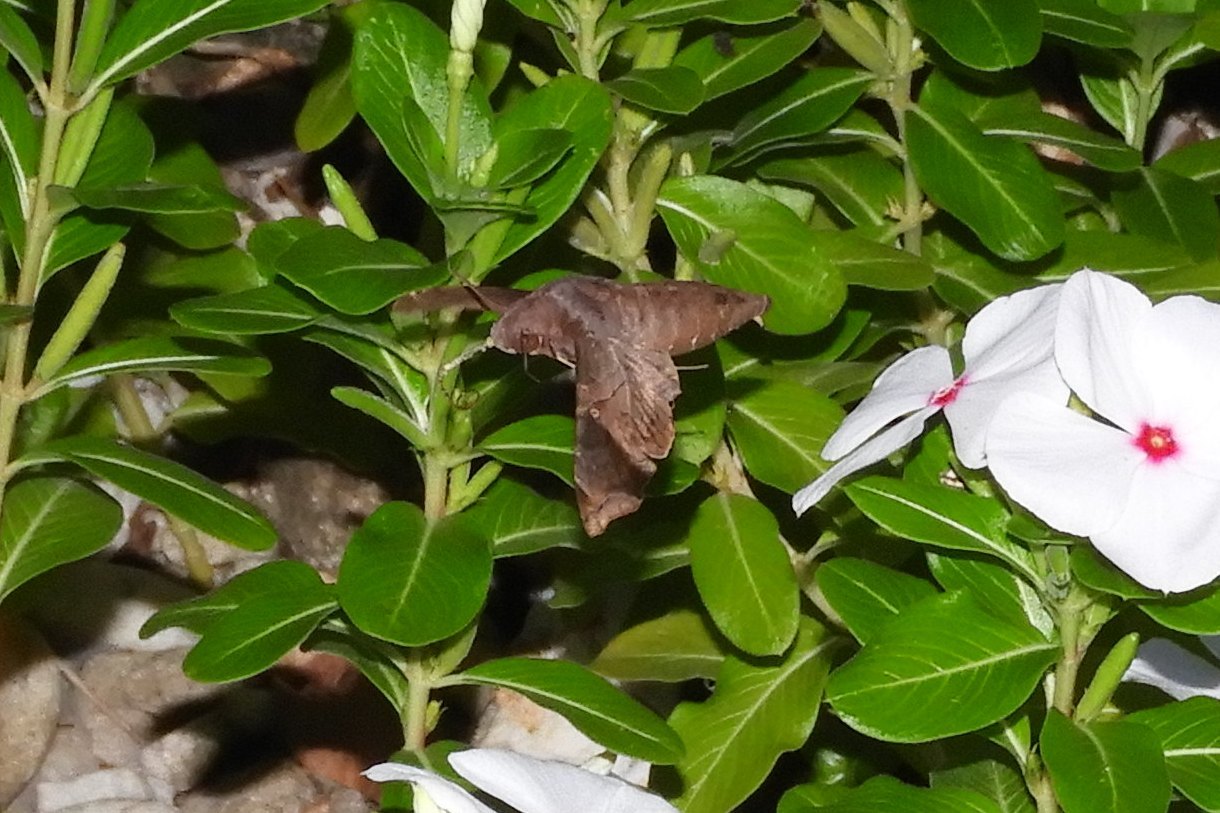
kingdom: Animalia
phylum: Arthropoda
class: Insecta
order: Lepidoptera
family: Sphingidae
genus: Enyo
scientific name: Enyo lugubris
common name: Mournful sphinx
